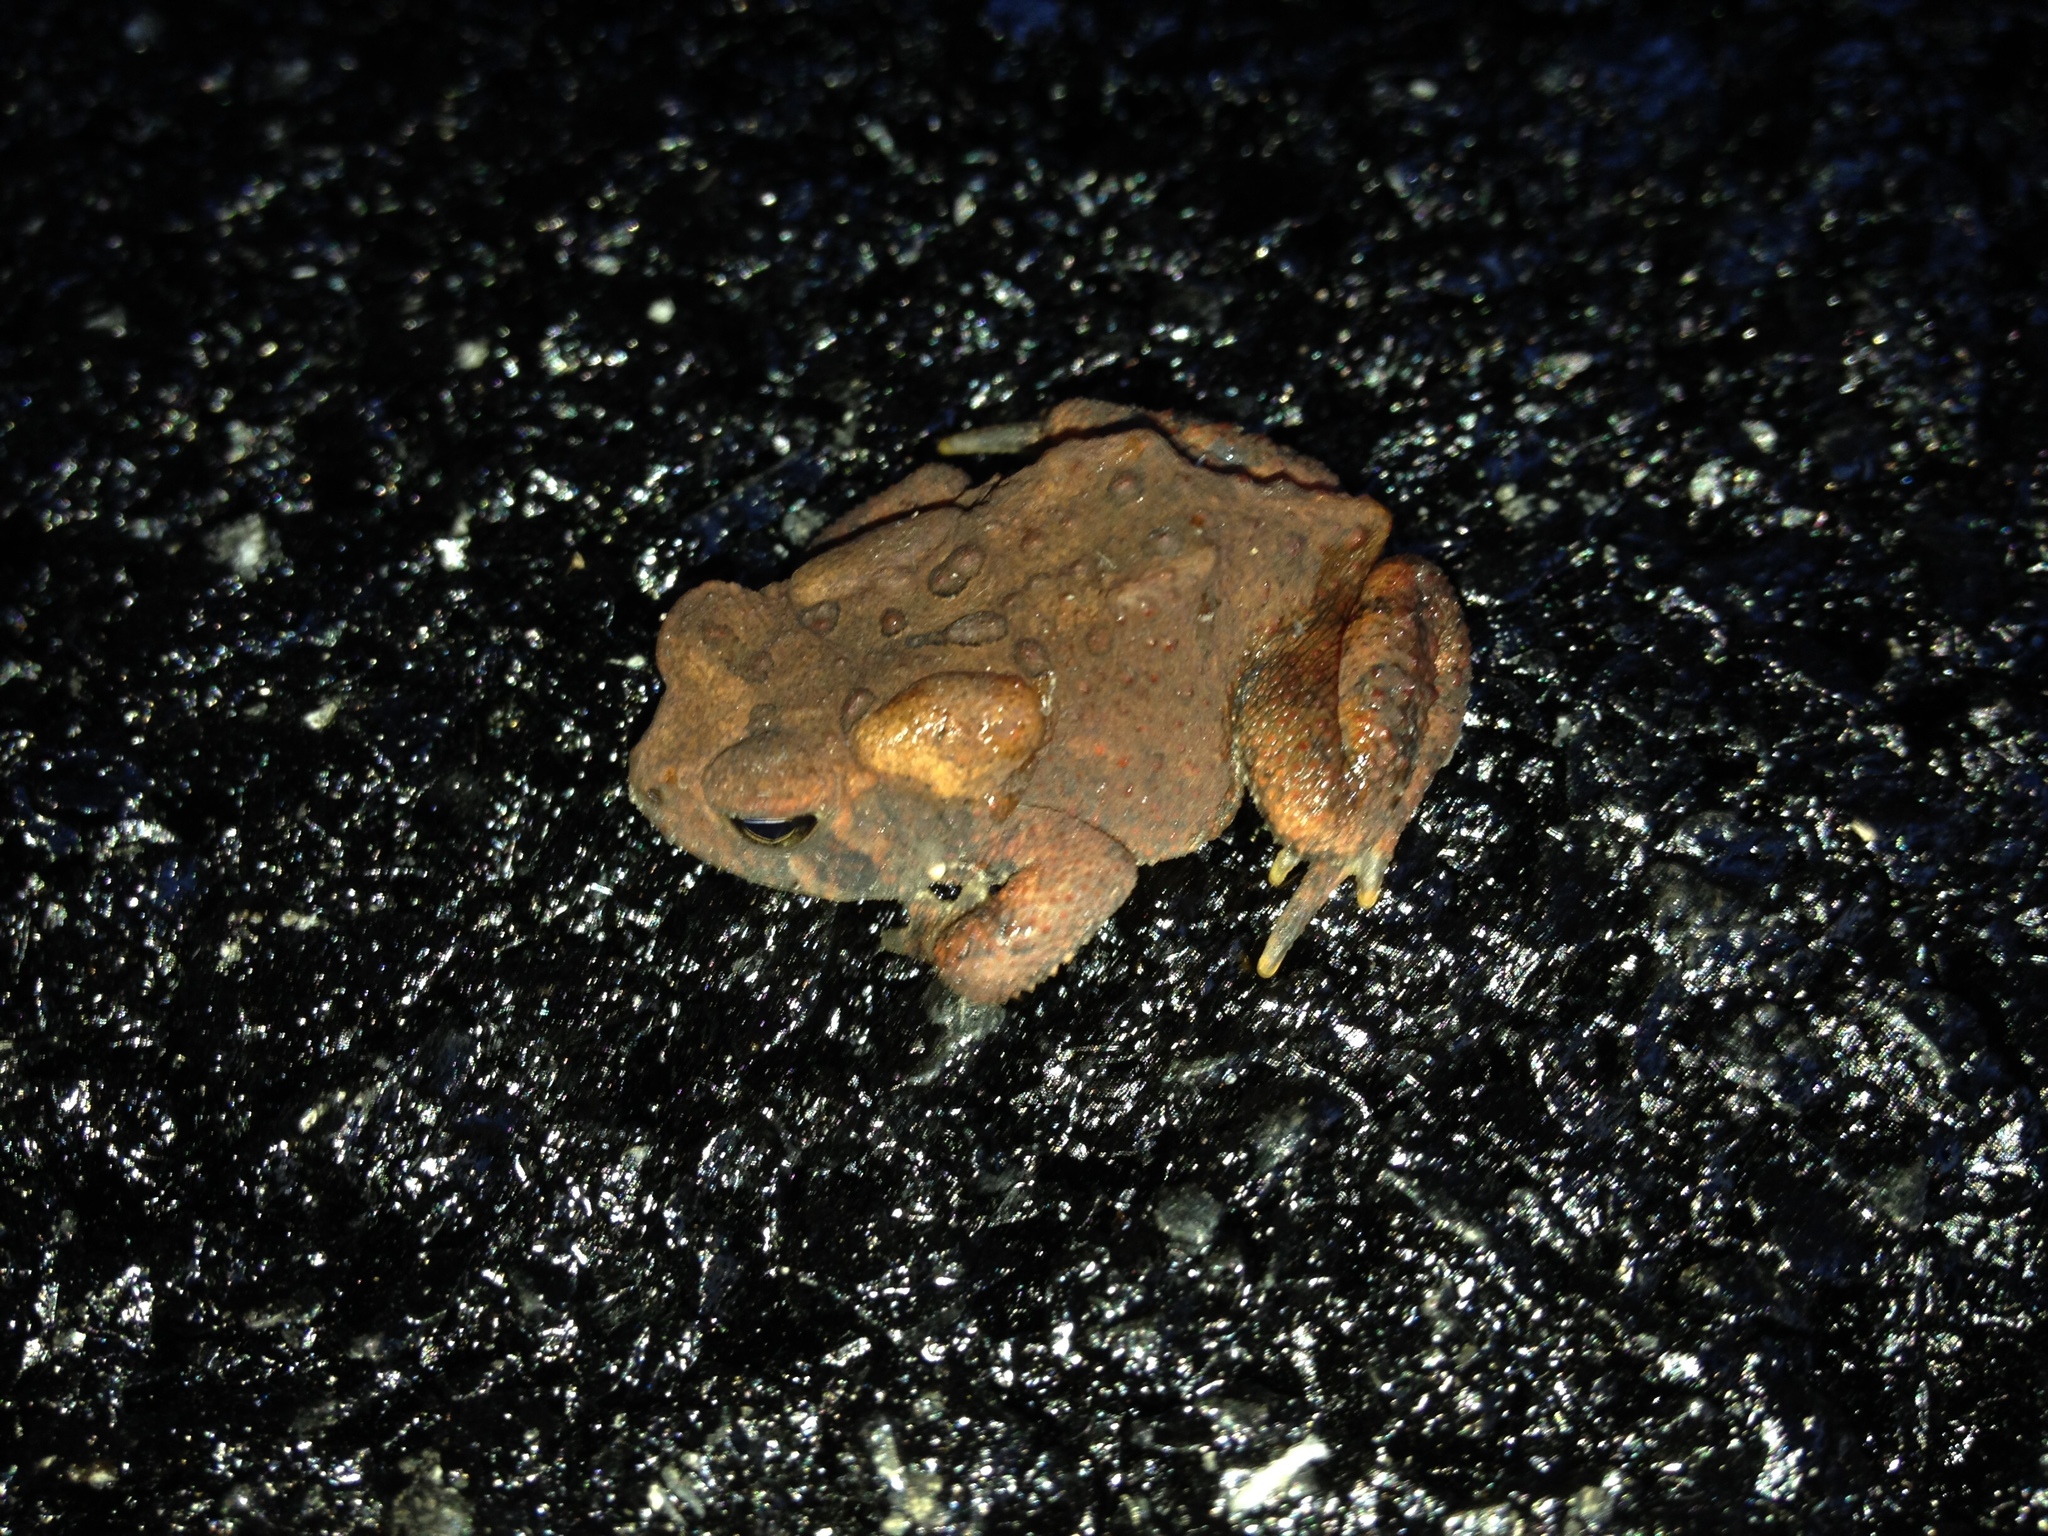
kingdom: Animalia
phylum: Chordata
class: Amphibia
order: Anura
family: Bufonidae
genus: Anaxyrus
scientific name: Anaxyrus americanus
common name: American toad
